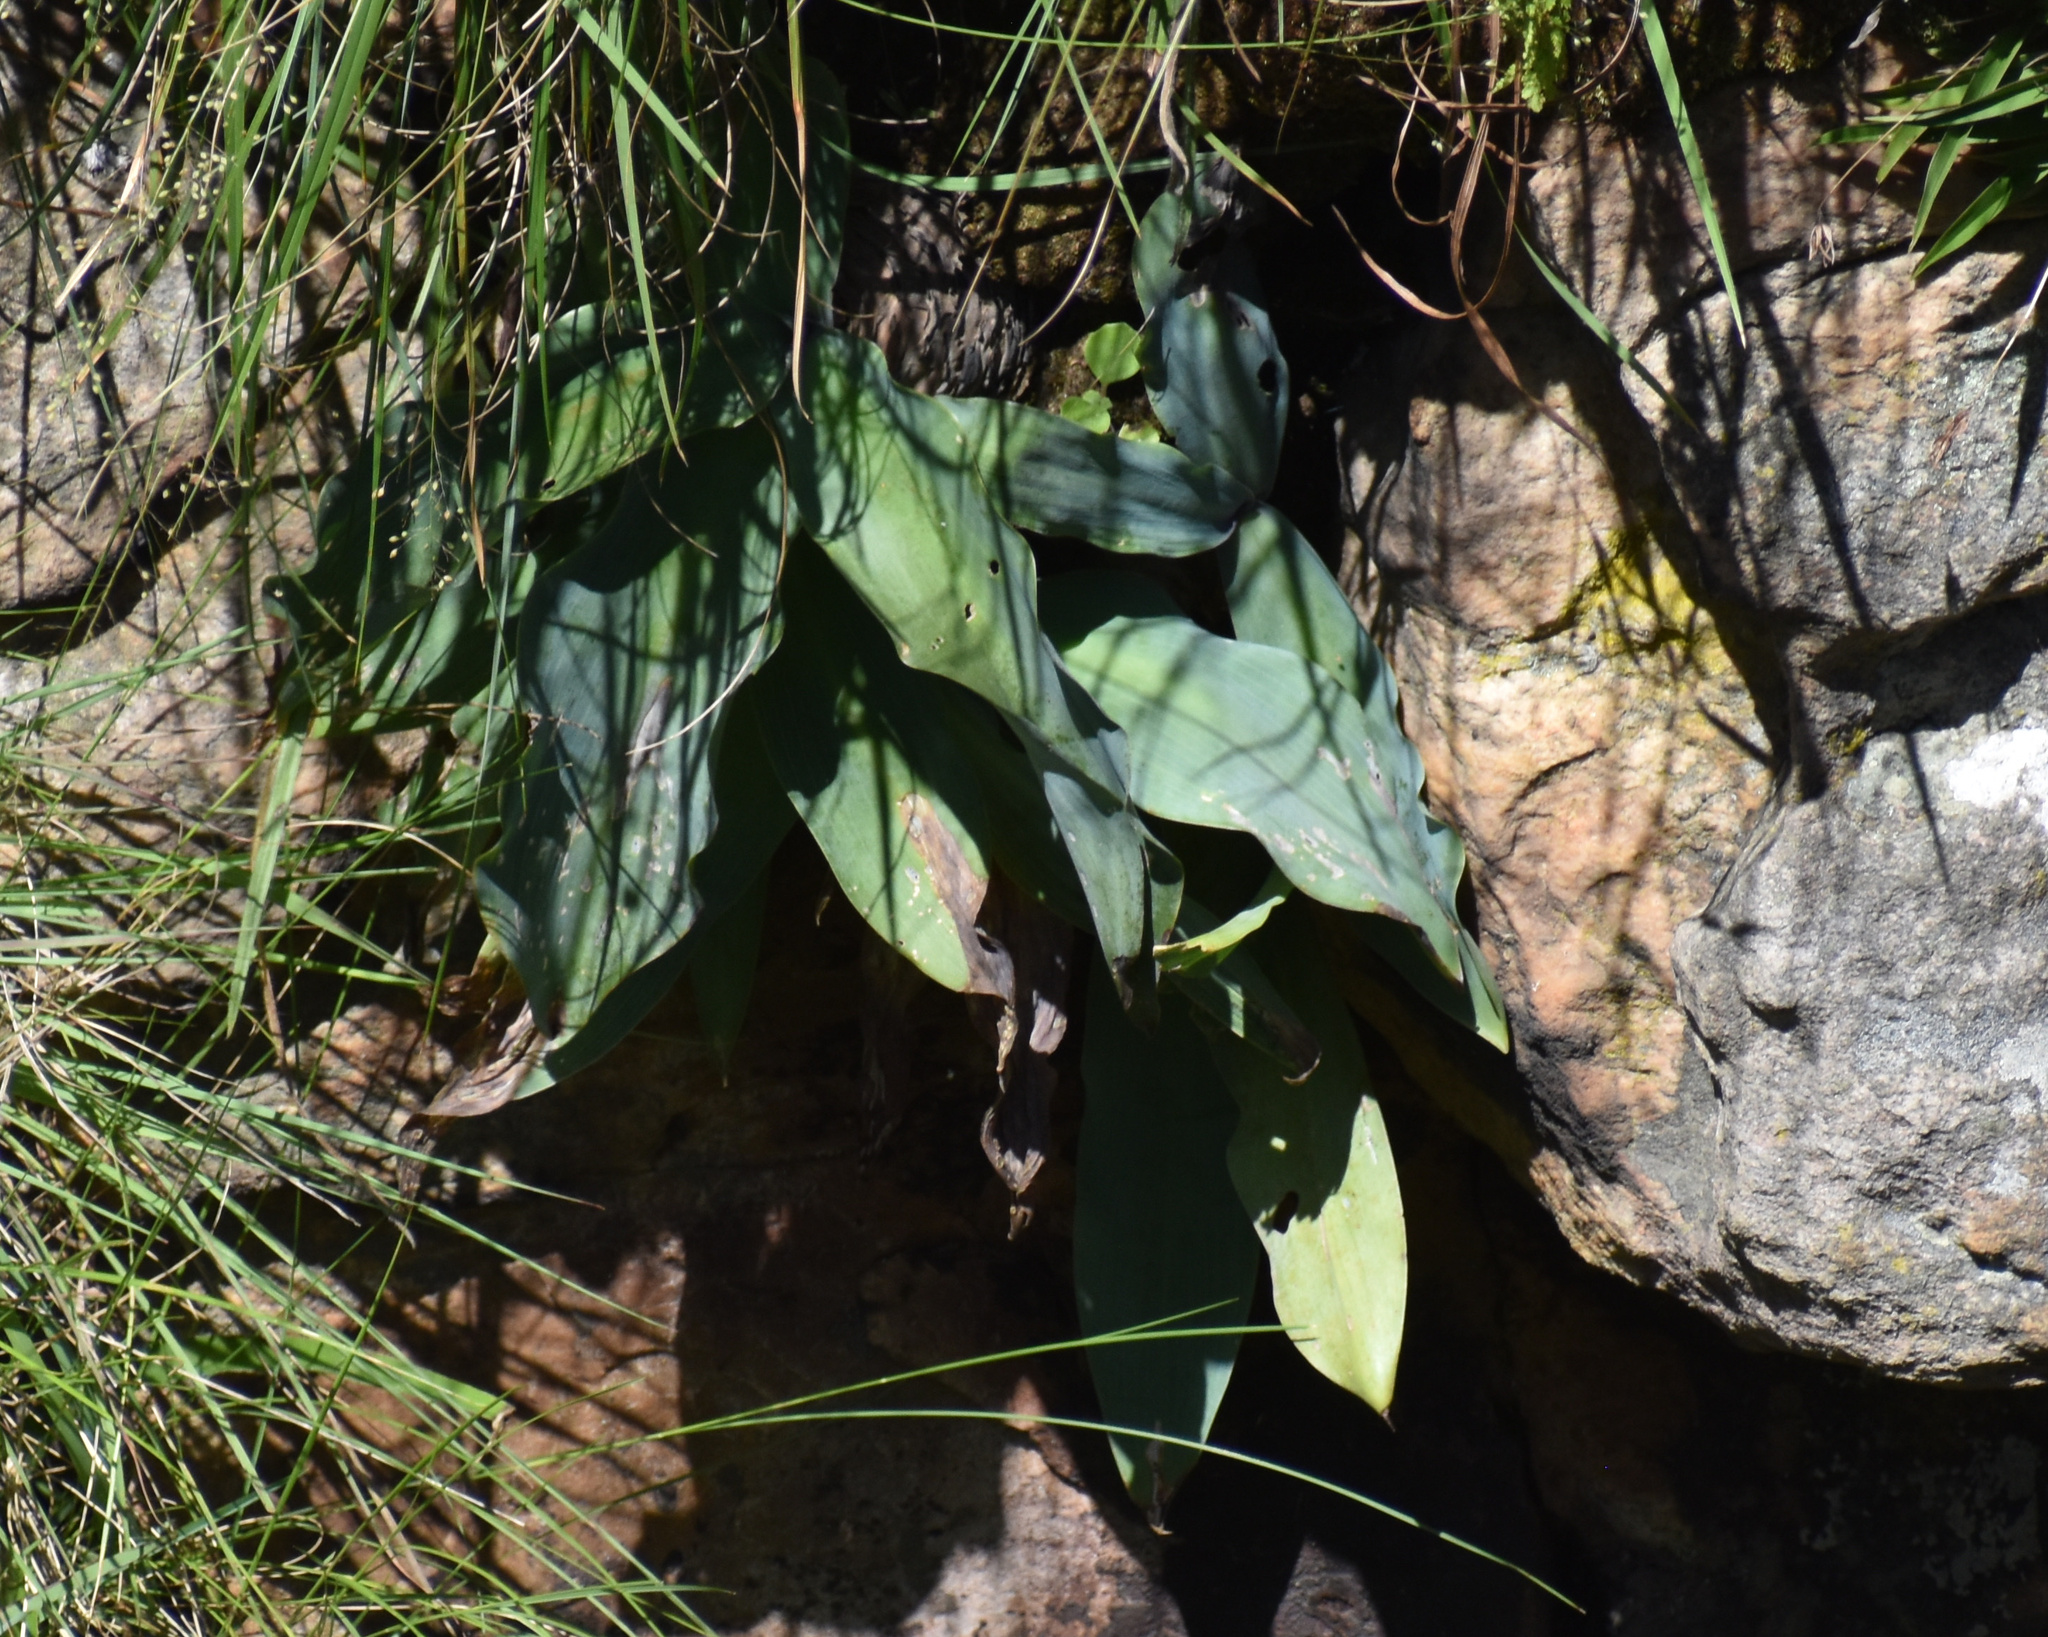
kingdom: Plantae
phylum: Tracheophyta
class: Liliopsida
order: Asparagales
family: Asparagaceae
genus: Merwilla
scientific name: Merwilla plumbea
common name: Blue-squill
